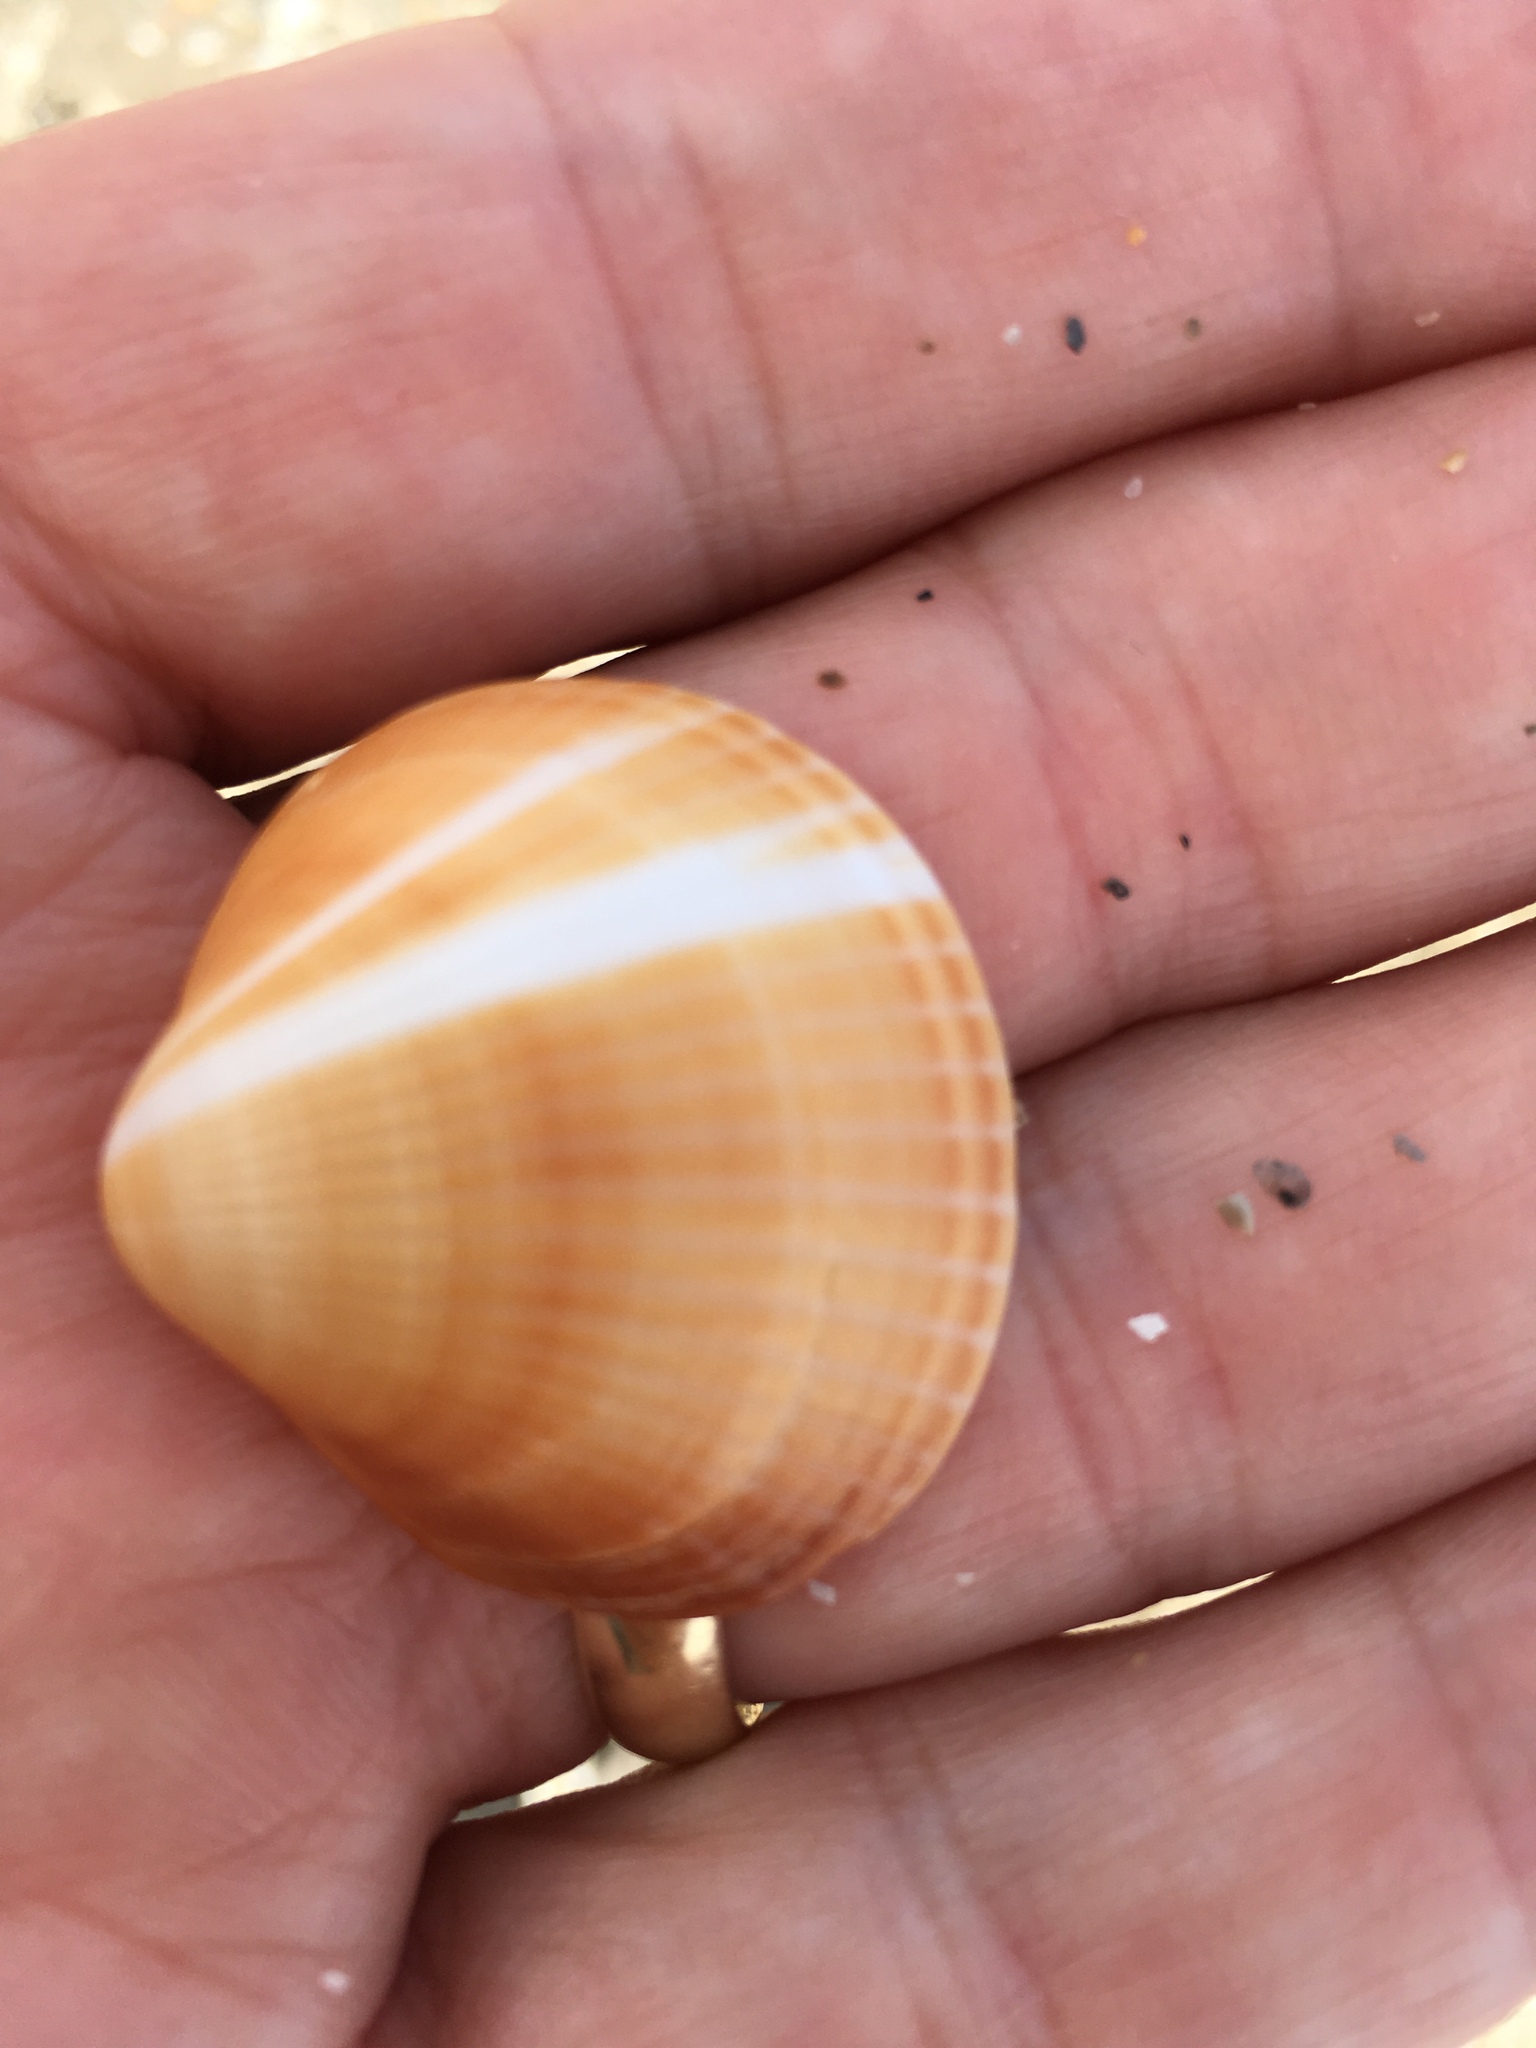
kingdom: Animalia
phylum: Mollusca
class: Bivalvia
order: Arcida
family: Glycymerididae
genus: Glycymeris
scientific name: Glycymeris spectralis
